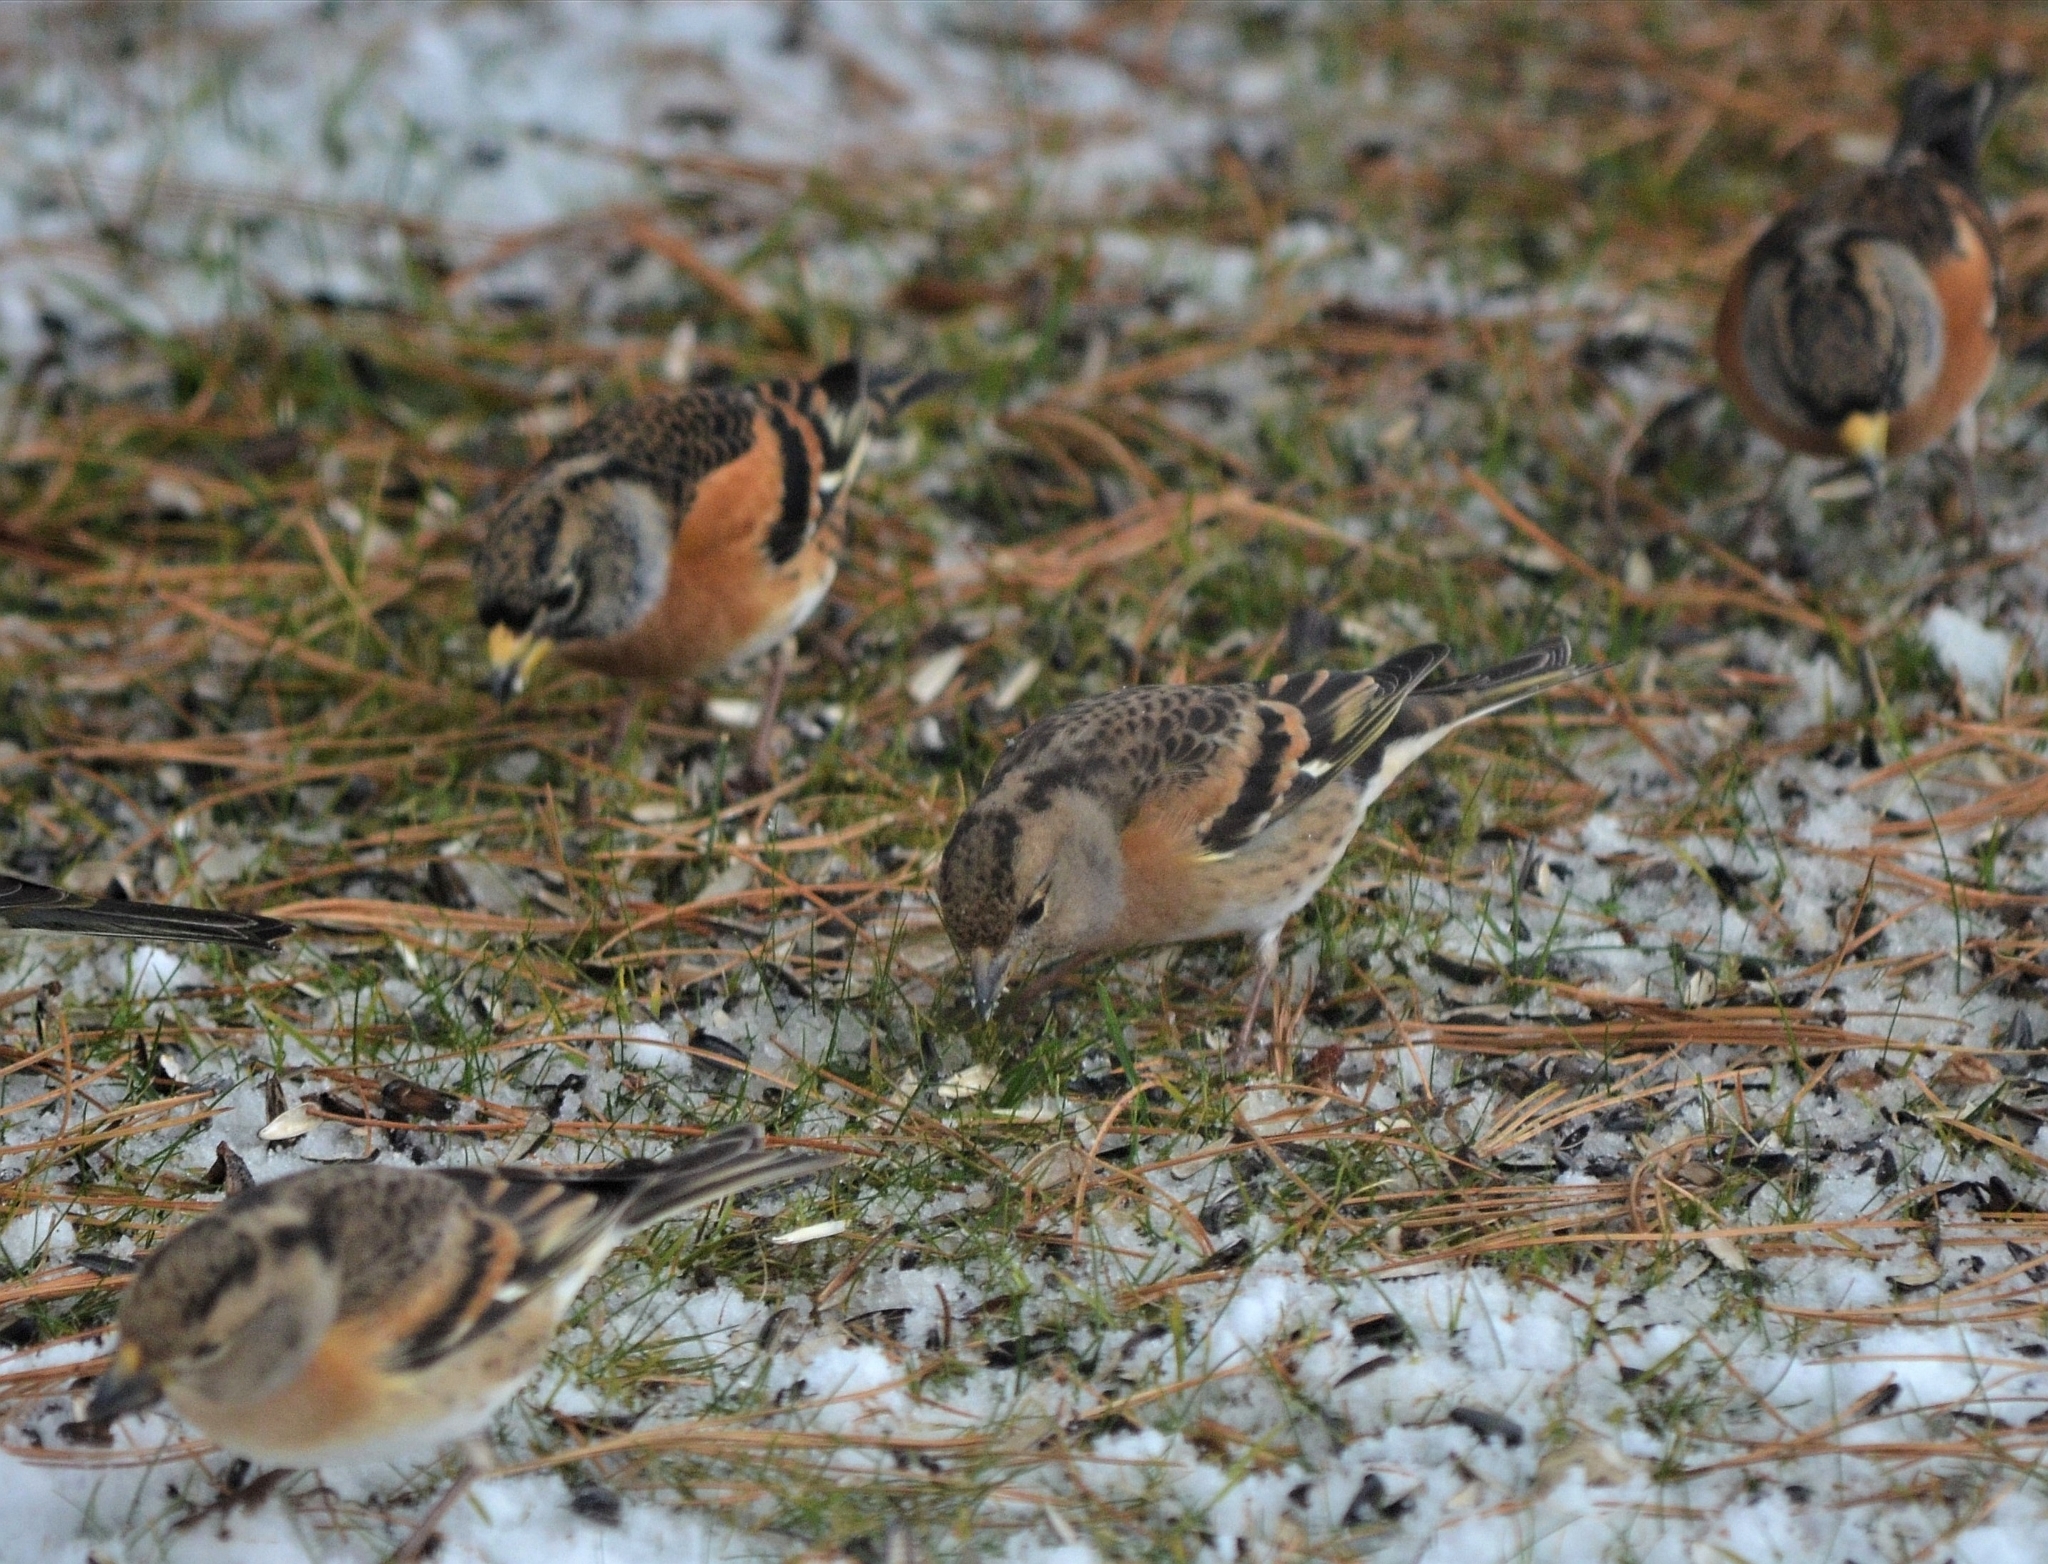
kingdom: Animalia
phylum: Chordata
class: Aves
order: Passeriformes
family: Fringillidae
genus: Fringilla
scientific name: Fringilla montifringilla
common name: Brambling
